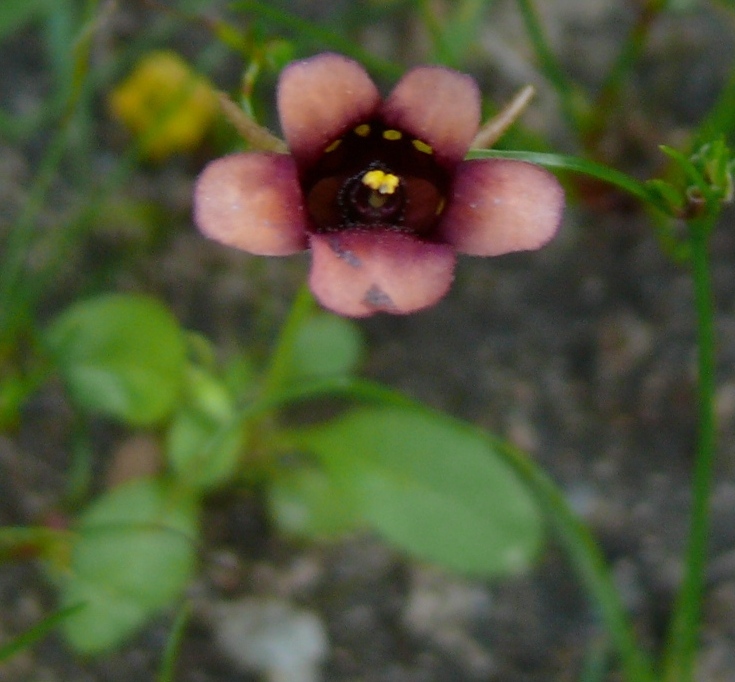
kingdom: Plantae
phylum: Tracheophyta
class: Magnoliopsida
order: Lamiales
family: Scrophulariaceae
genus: Diascia
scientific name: Diascia longicornis
